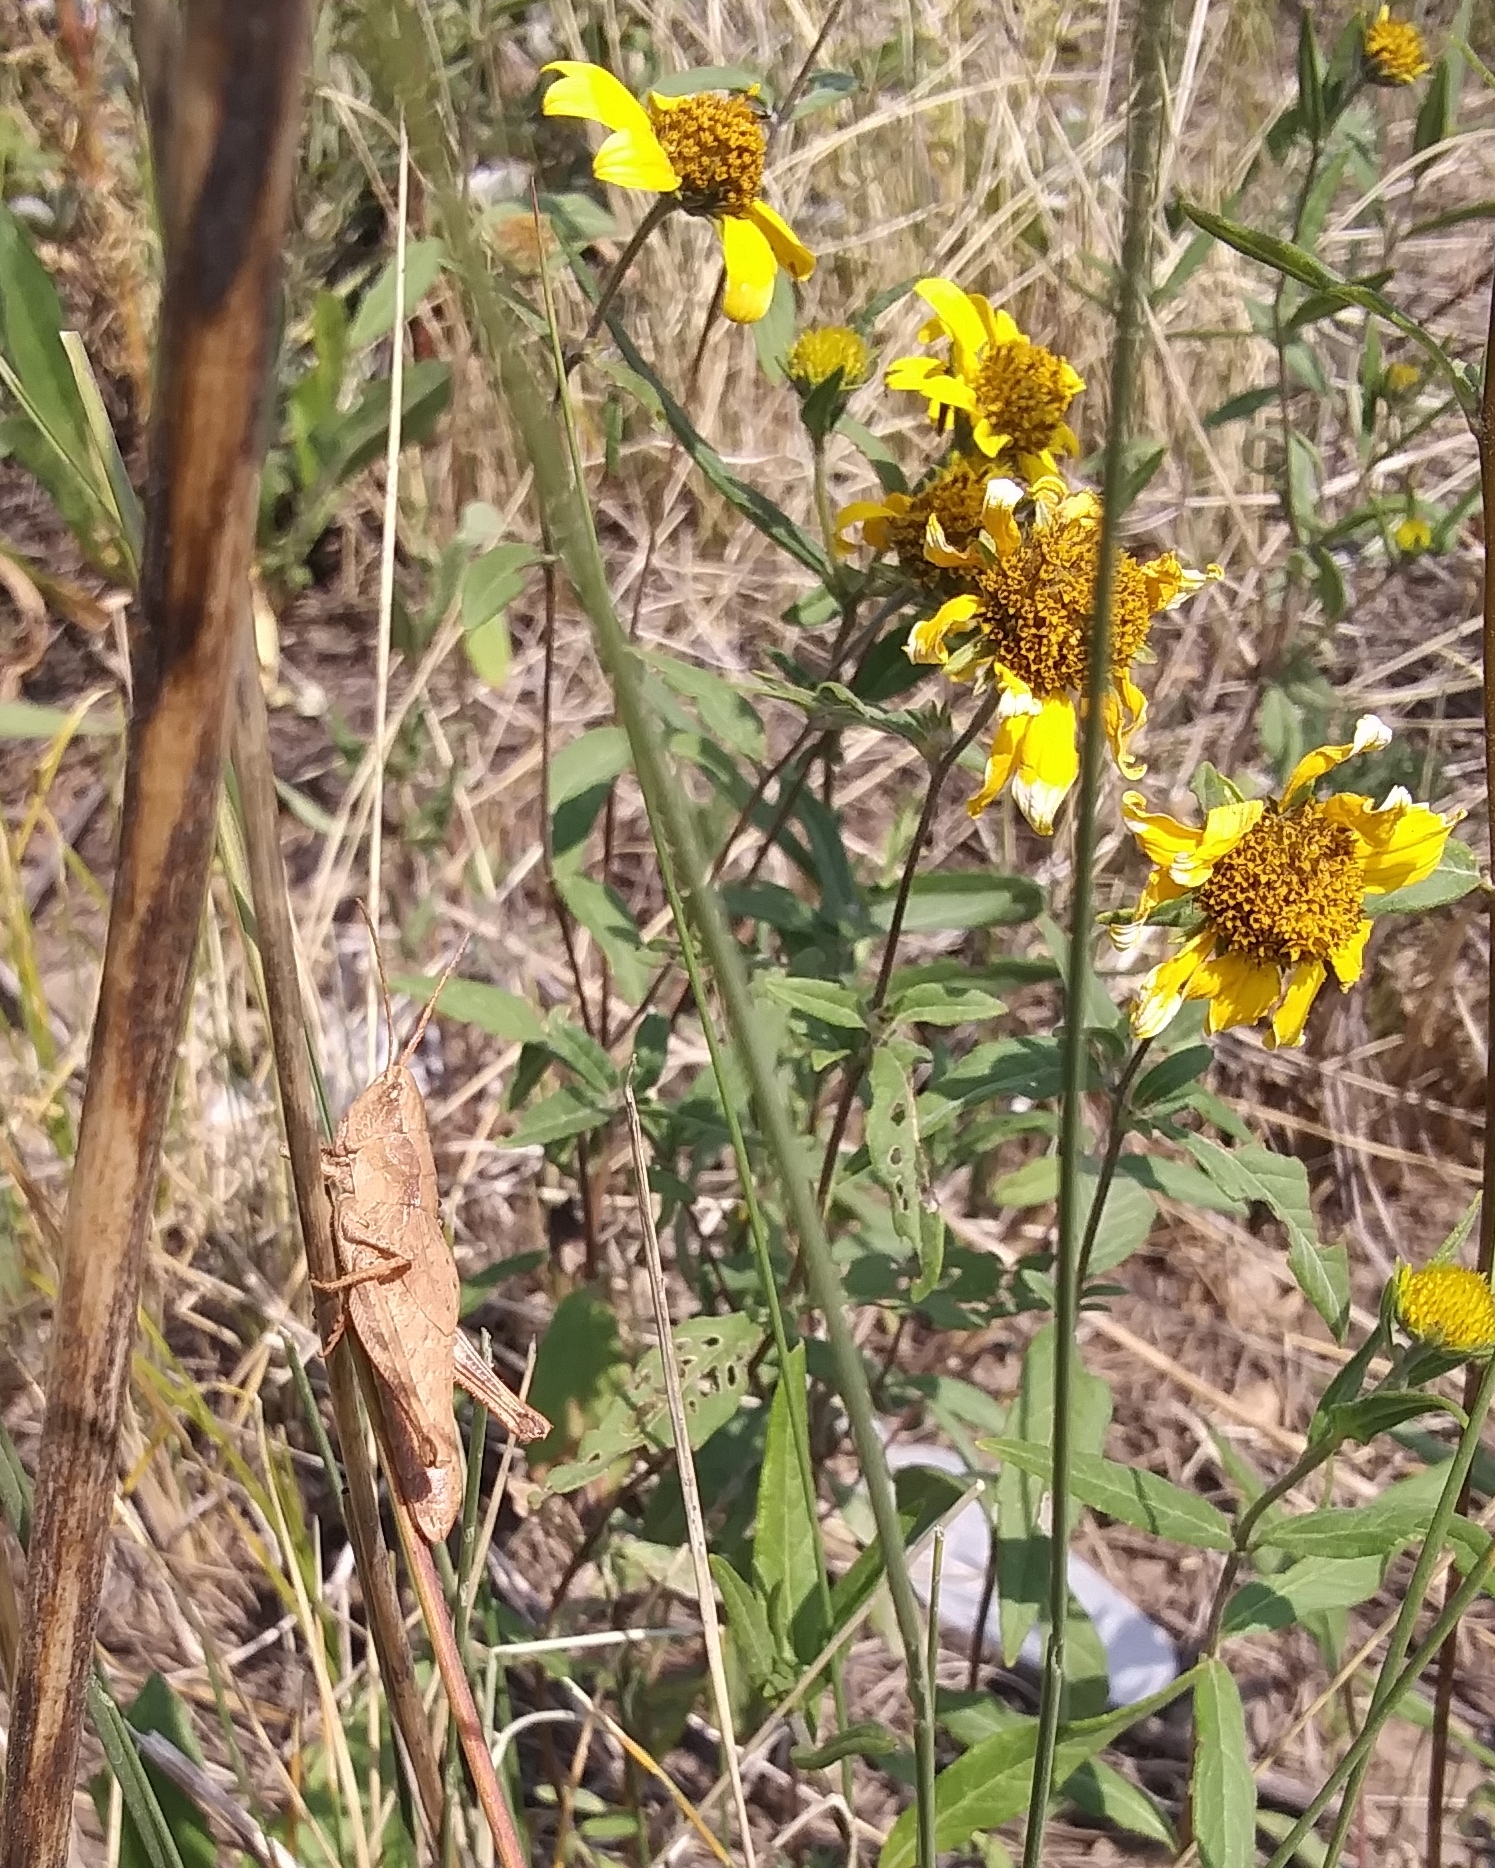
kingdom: Animalia
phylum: Arthropoda
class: Insecta
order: Orthoptera
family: Acrididae
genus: Chloealtis
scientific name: Chloealtis abdominalis
